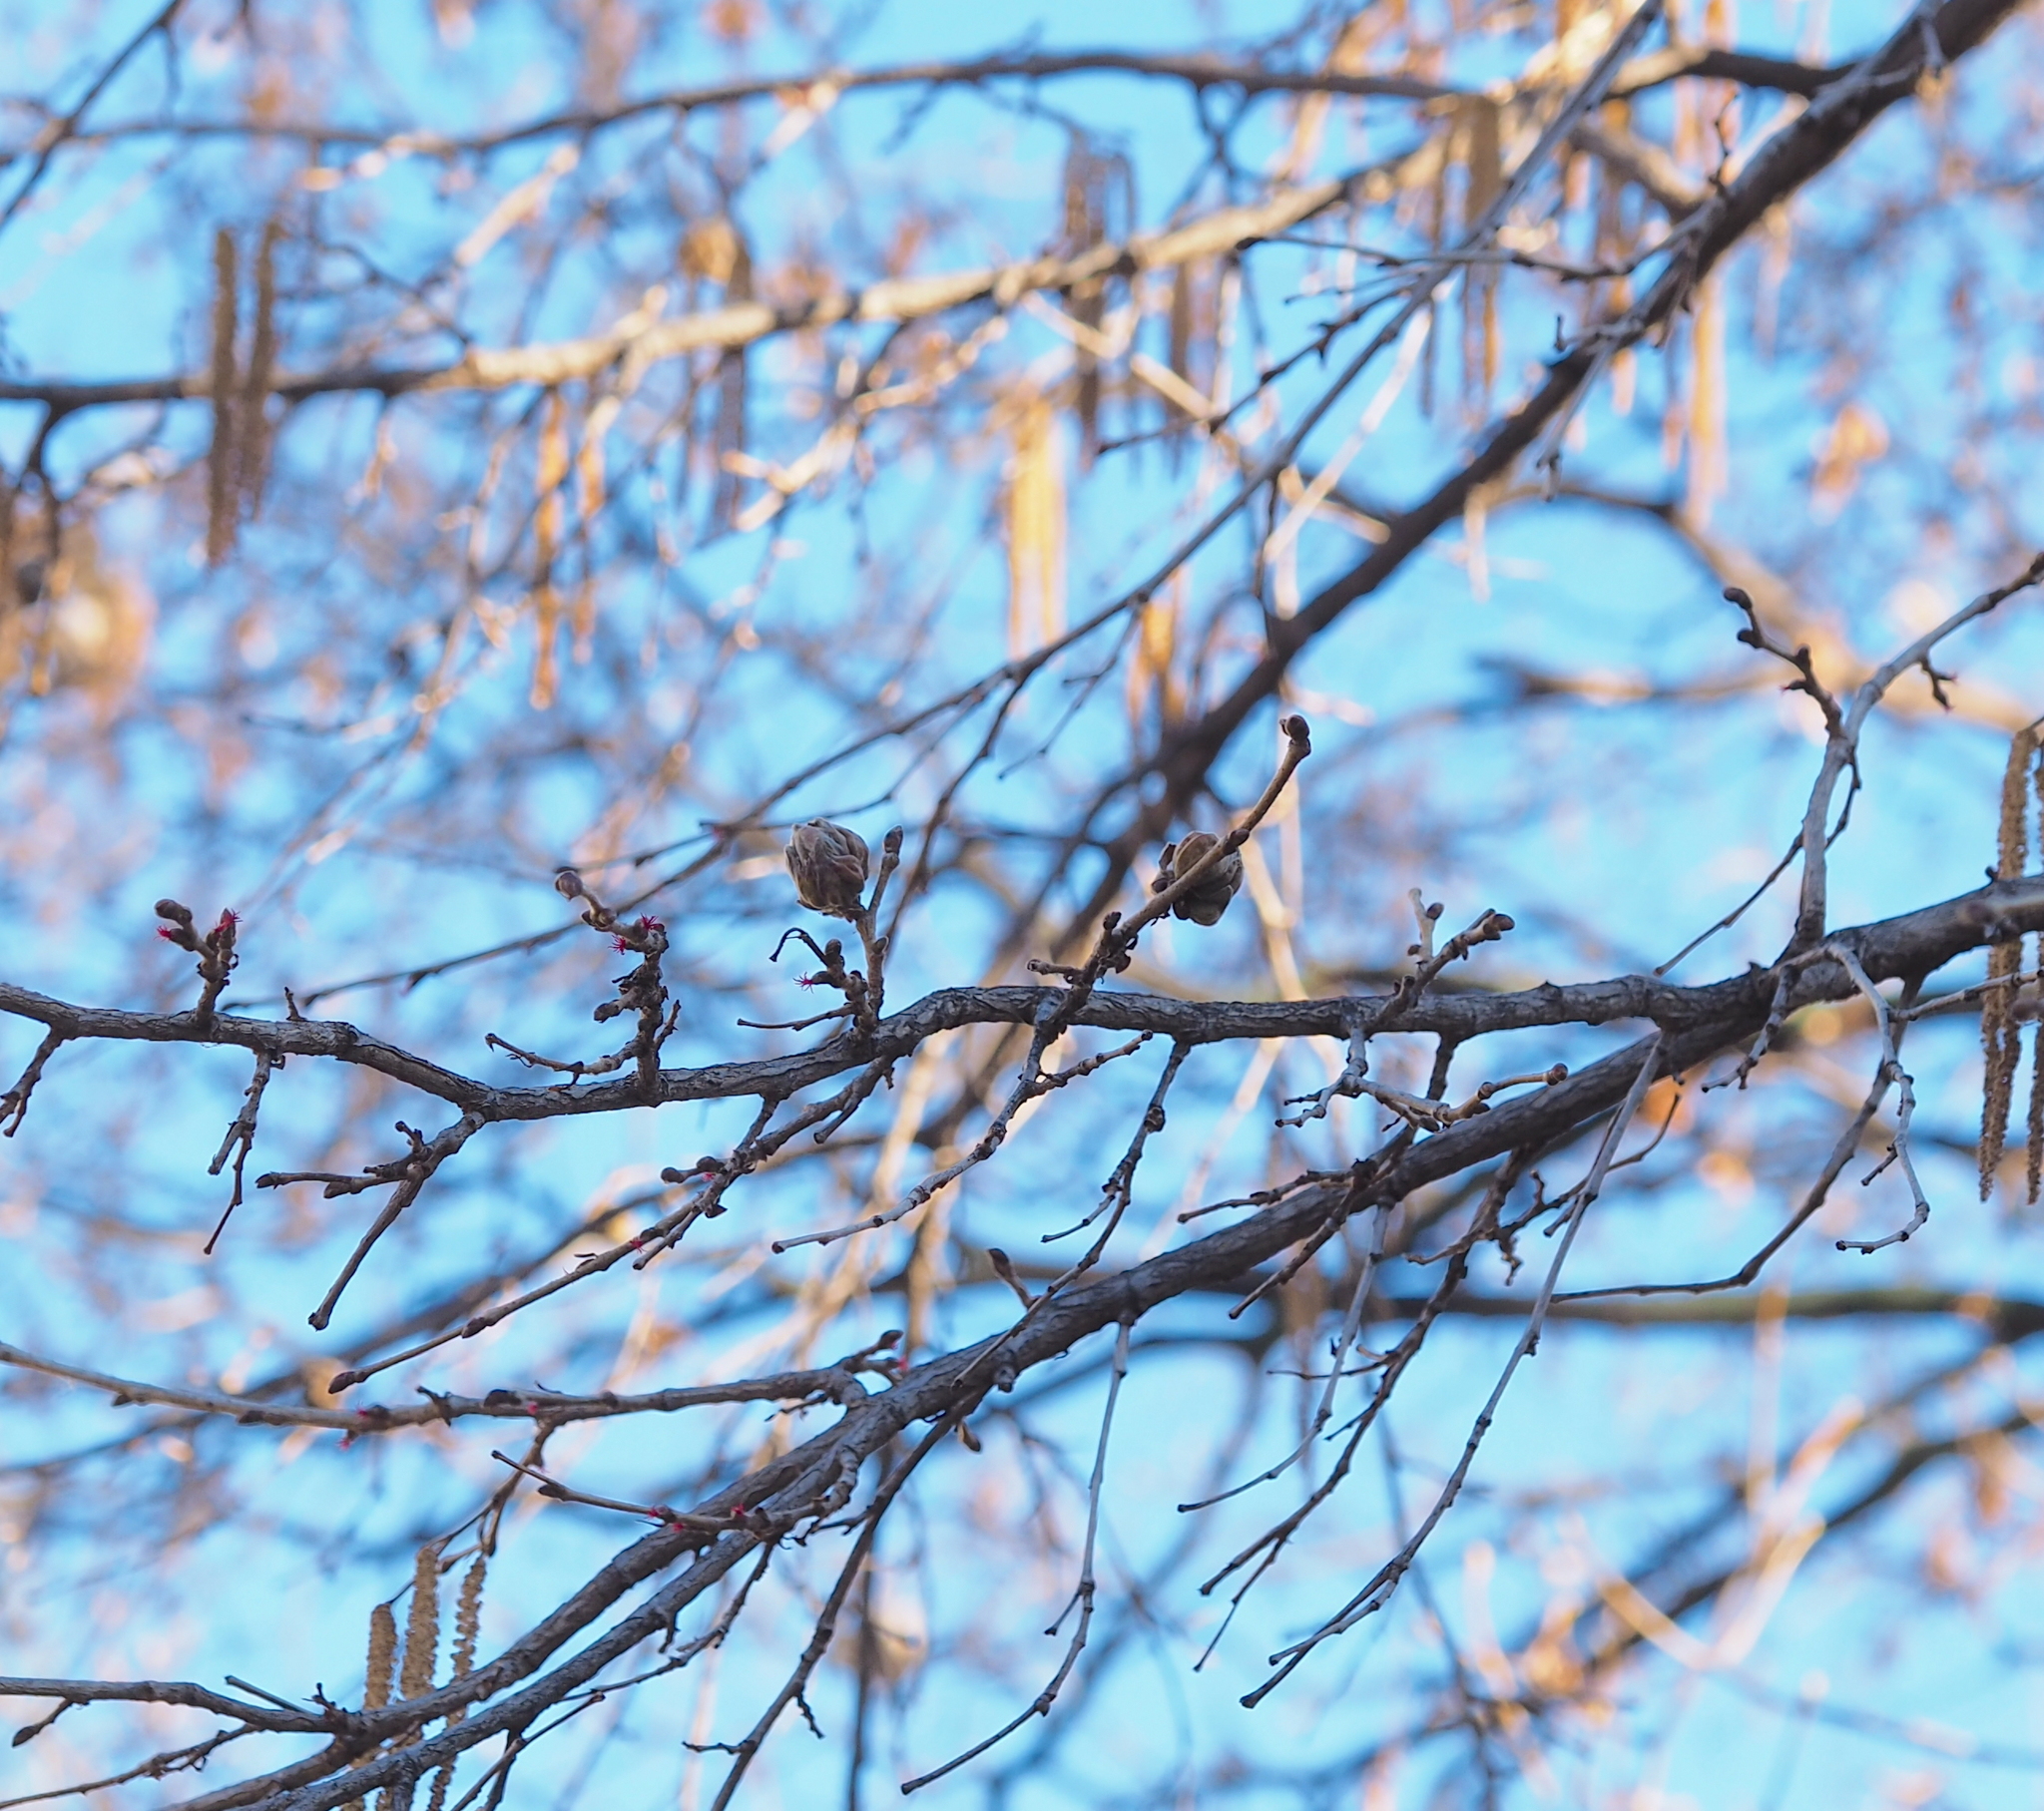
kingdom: Animalia
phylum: Arthropoda
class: Arachnida
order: Trombidiformes
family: Phytoptidae
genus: Phytoptus
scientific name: Phytoptus avellanae
